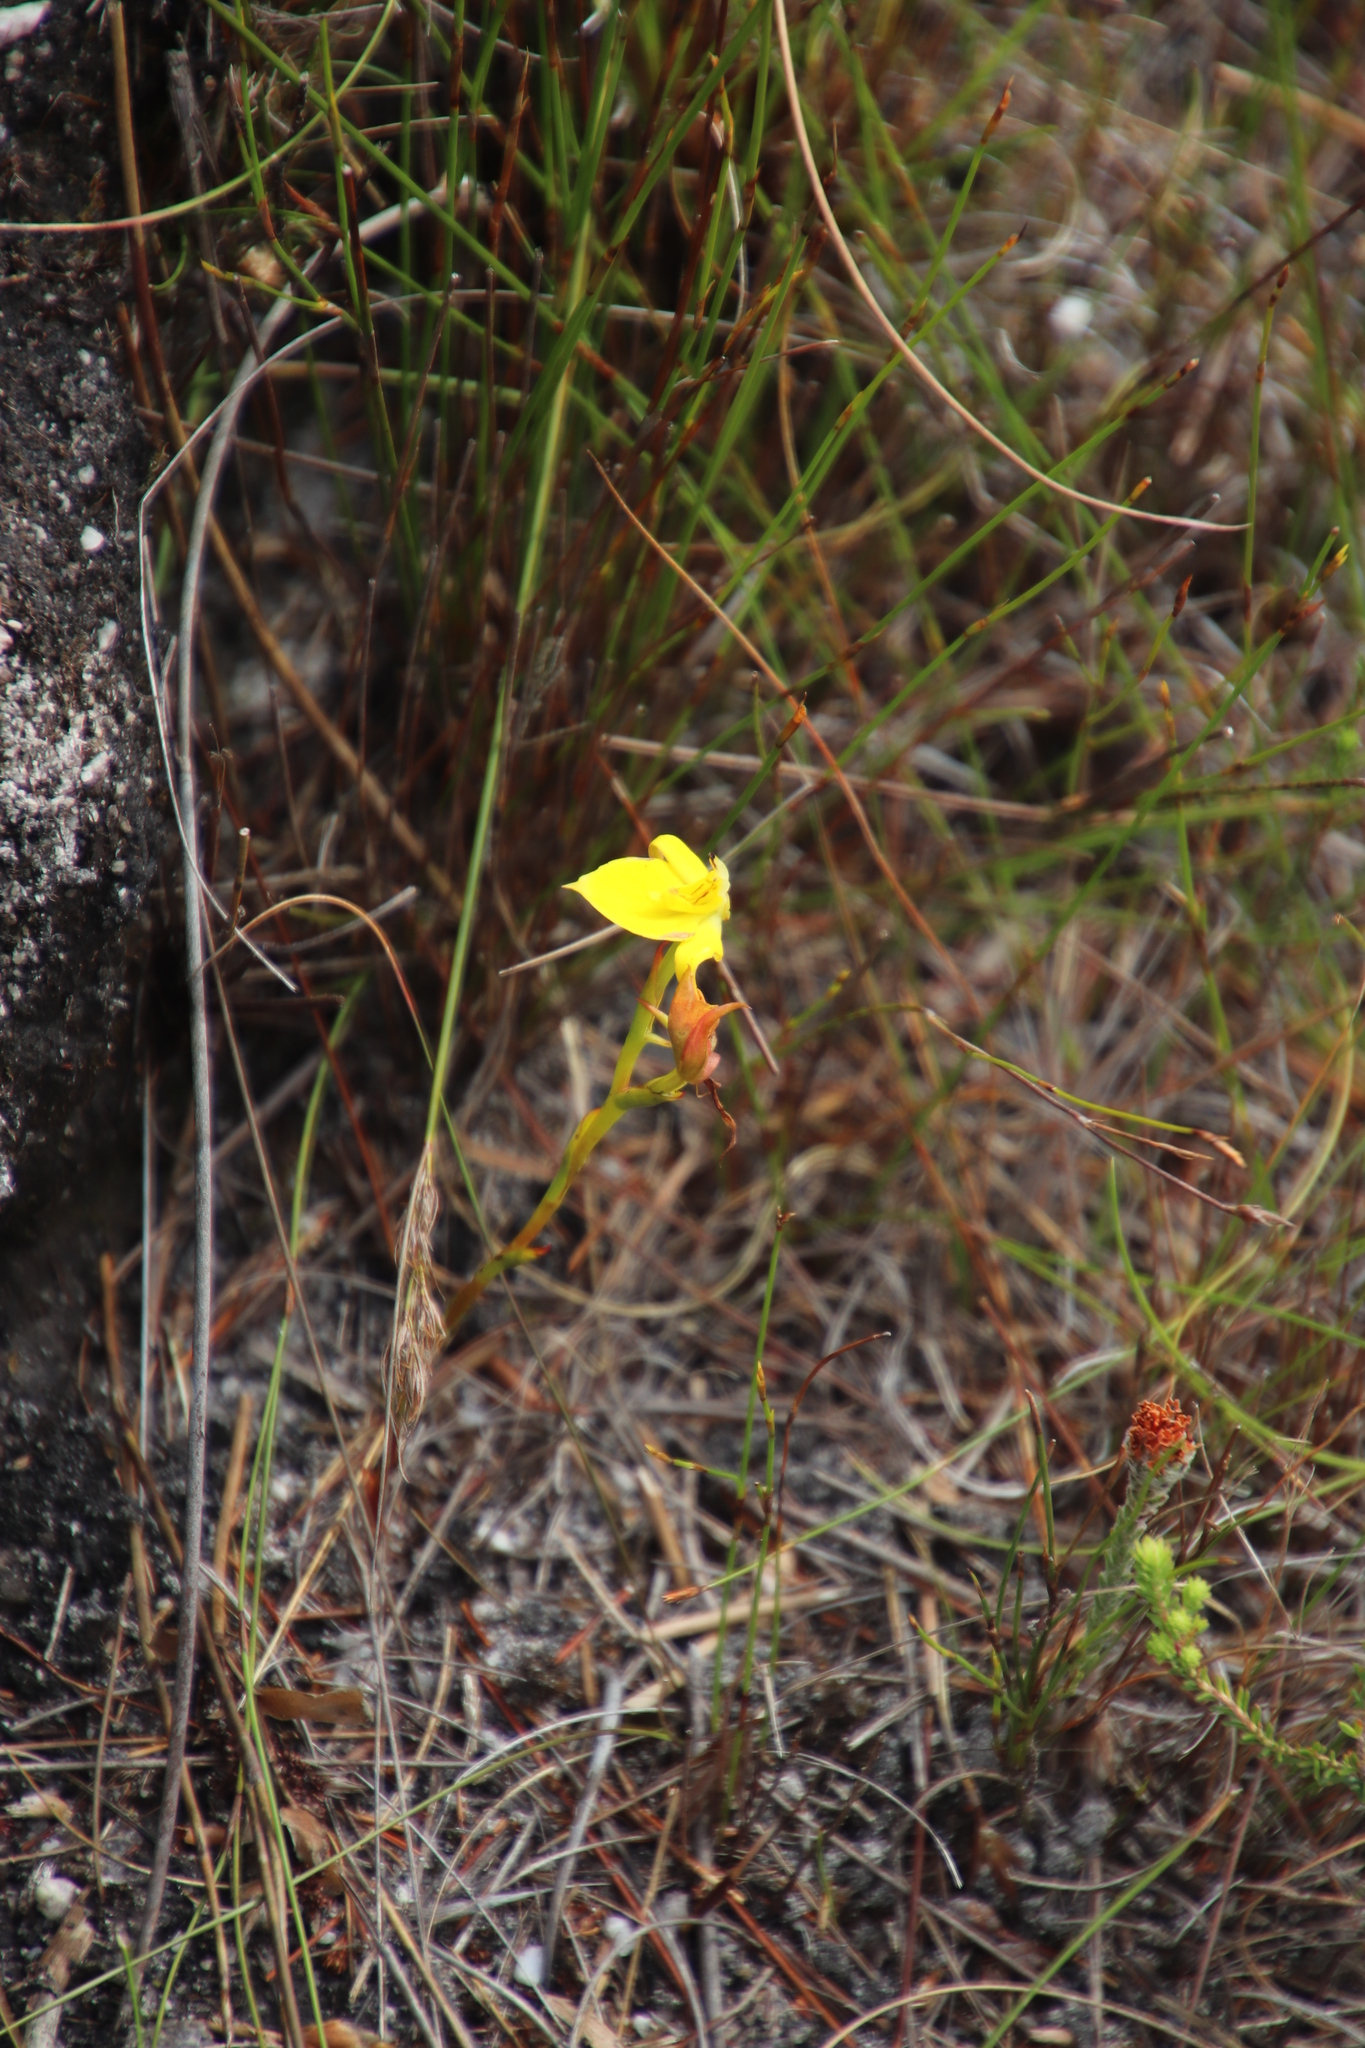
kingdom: Plantae
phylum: Tracheophyta
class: Liliopsida
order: Asparagales
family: Orchidaceae
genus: Disa
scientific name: Disa tenuifolia
